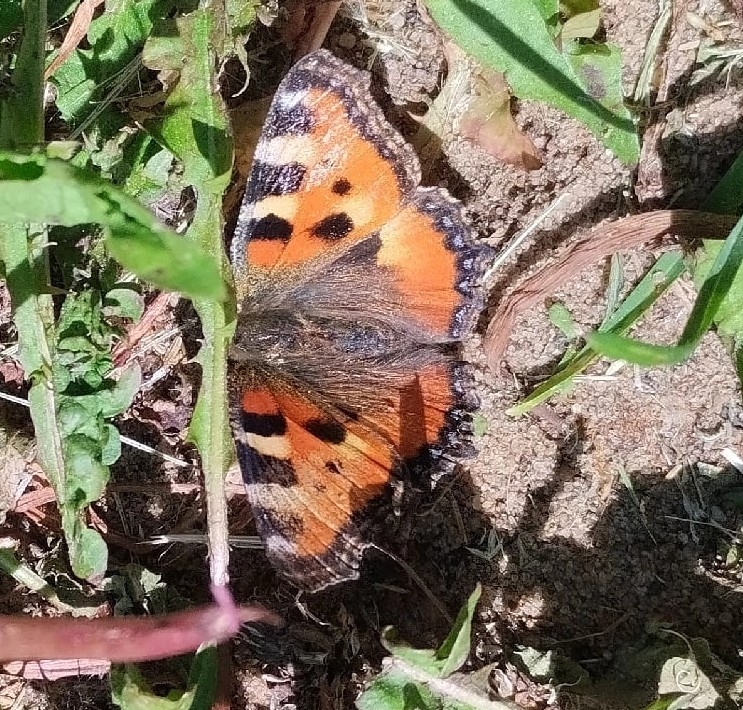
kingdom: Animalia
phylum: Arthropoda
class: Insecta
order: Lepidoptera
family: Nymphalidae
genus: Aglais
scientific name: Aglais urticae
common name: Small tortoiseshell
